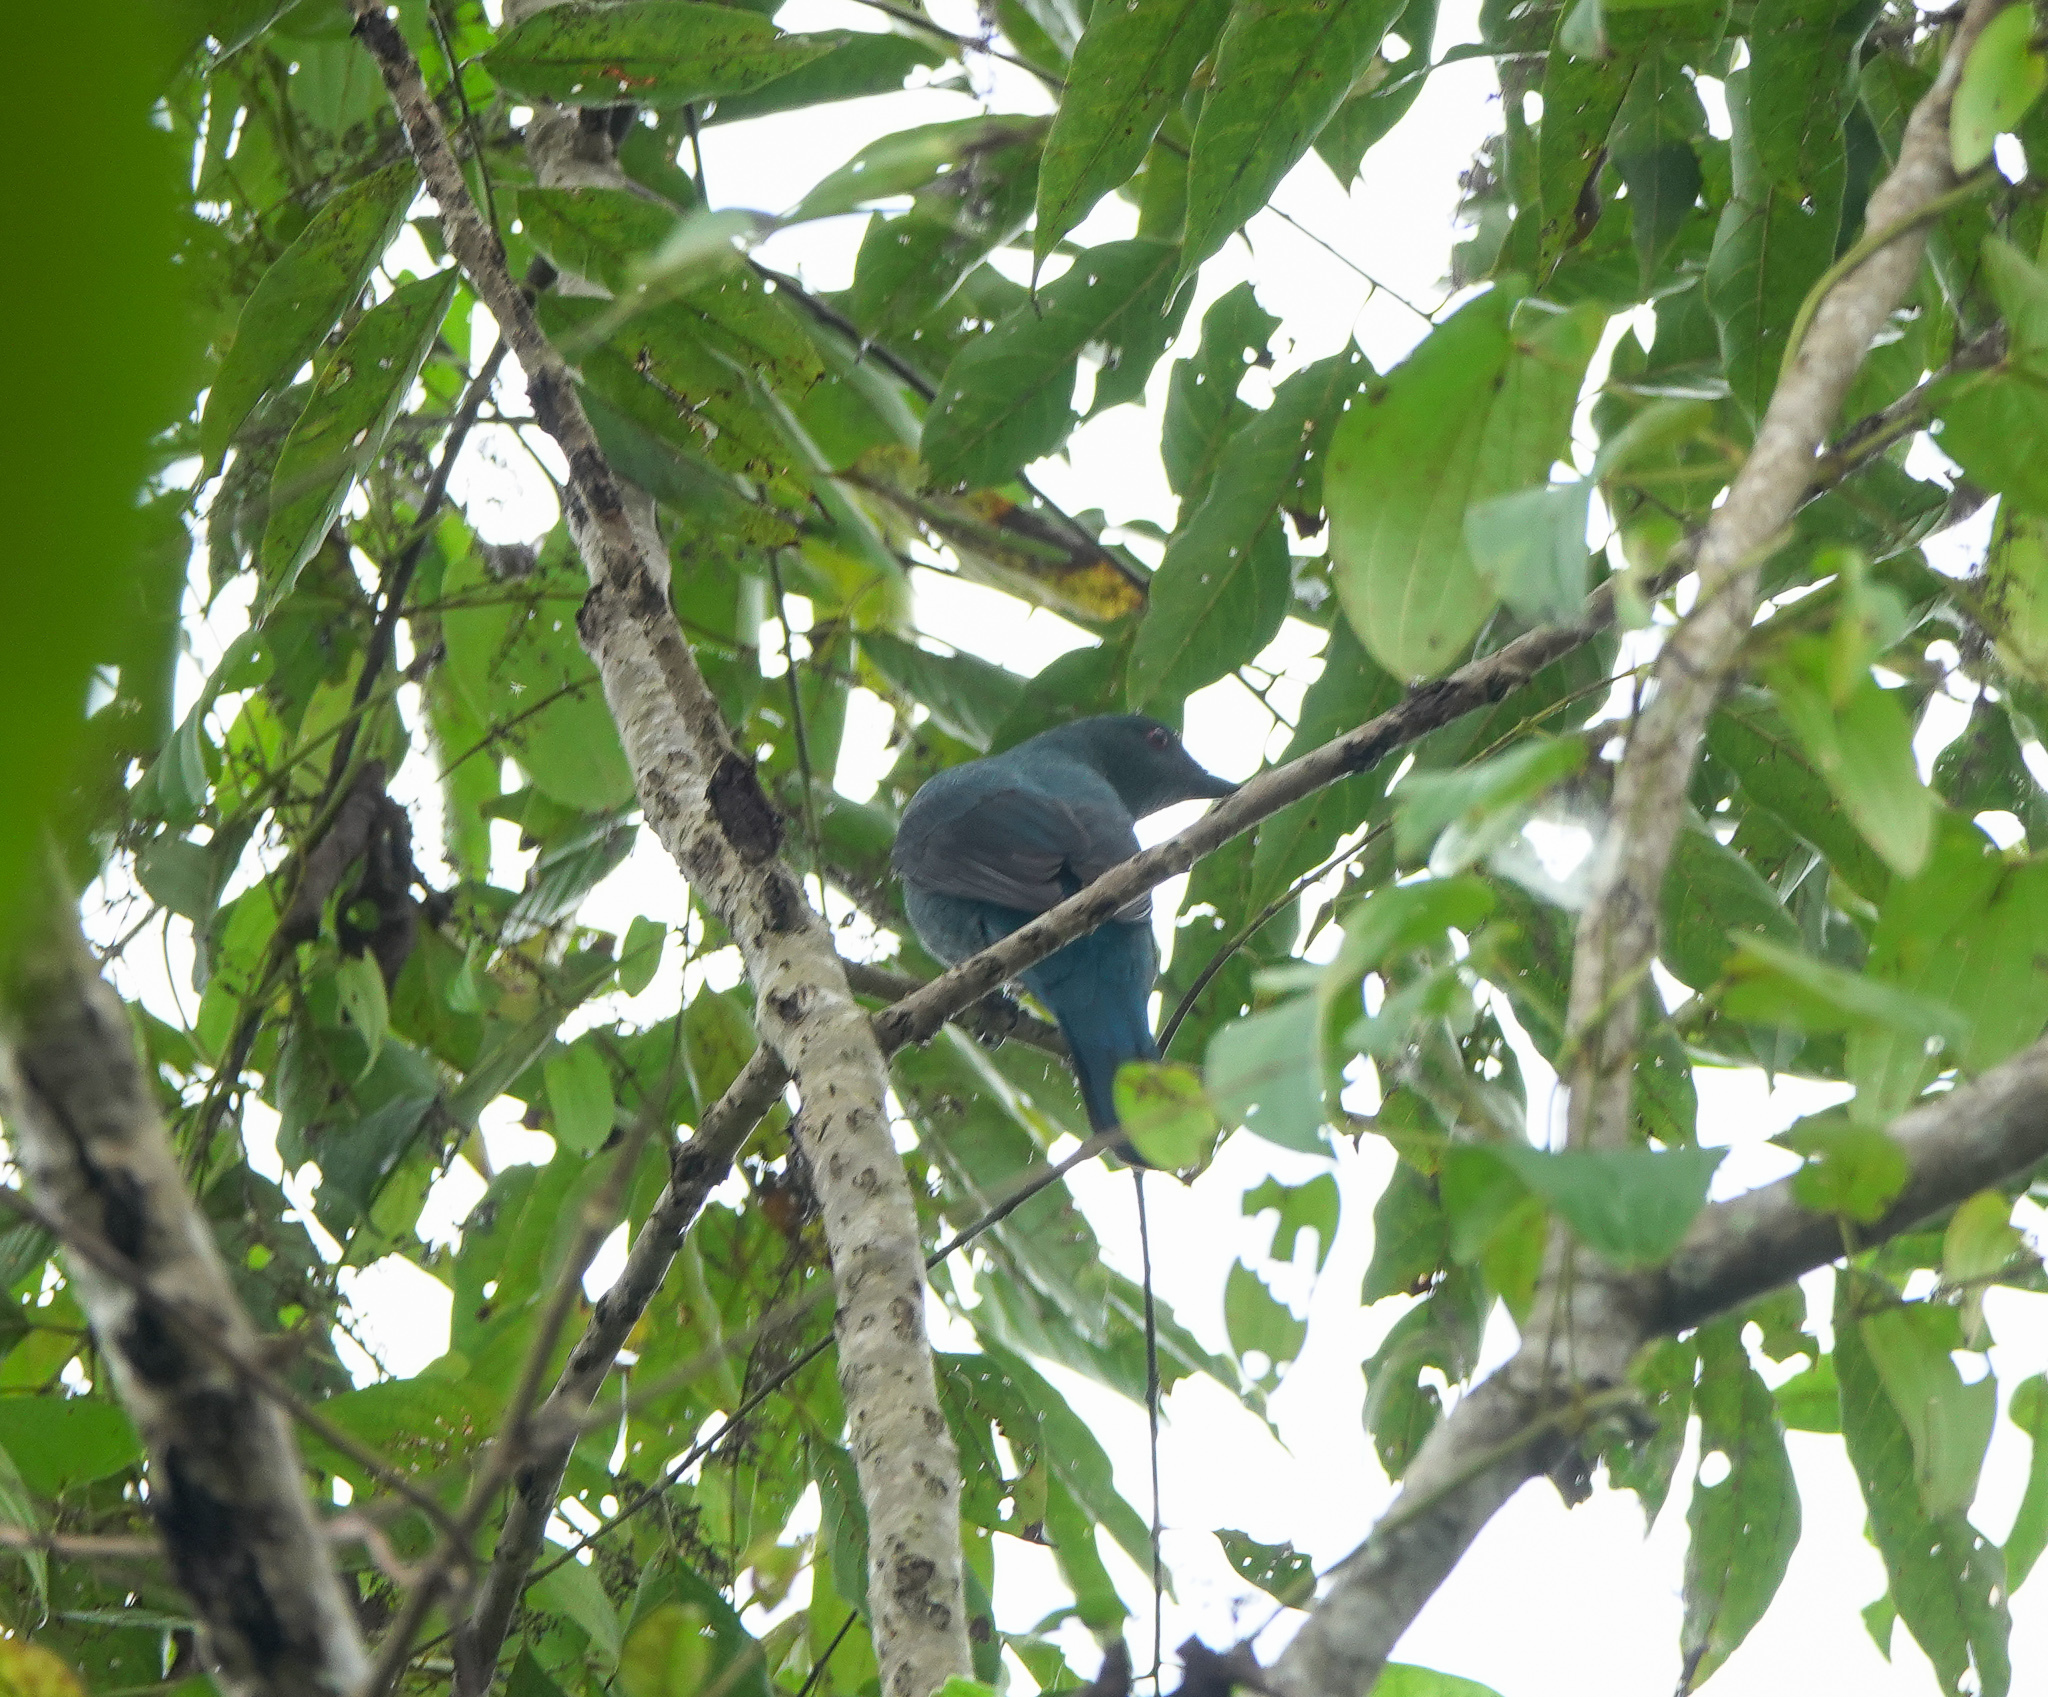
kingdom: Animalia
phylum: Chordata
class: Aves
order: Passeriformes
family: Irenidae
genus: Irena
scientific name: Irena puella
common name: Asian fairy-bluebird
